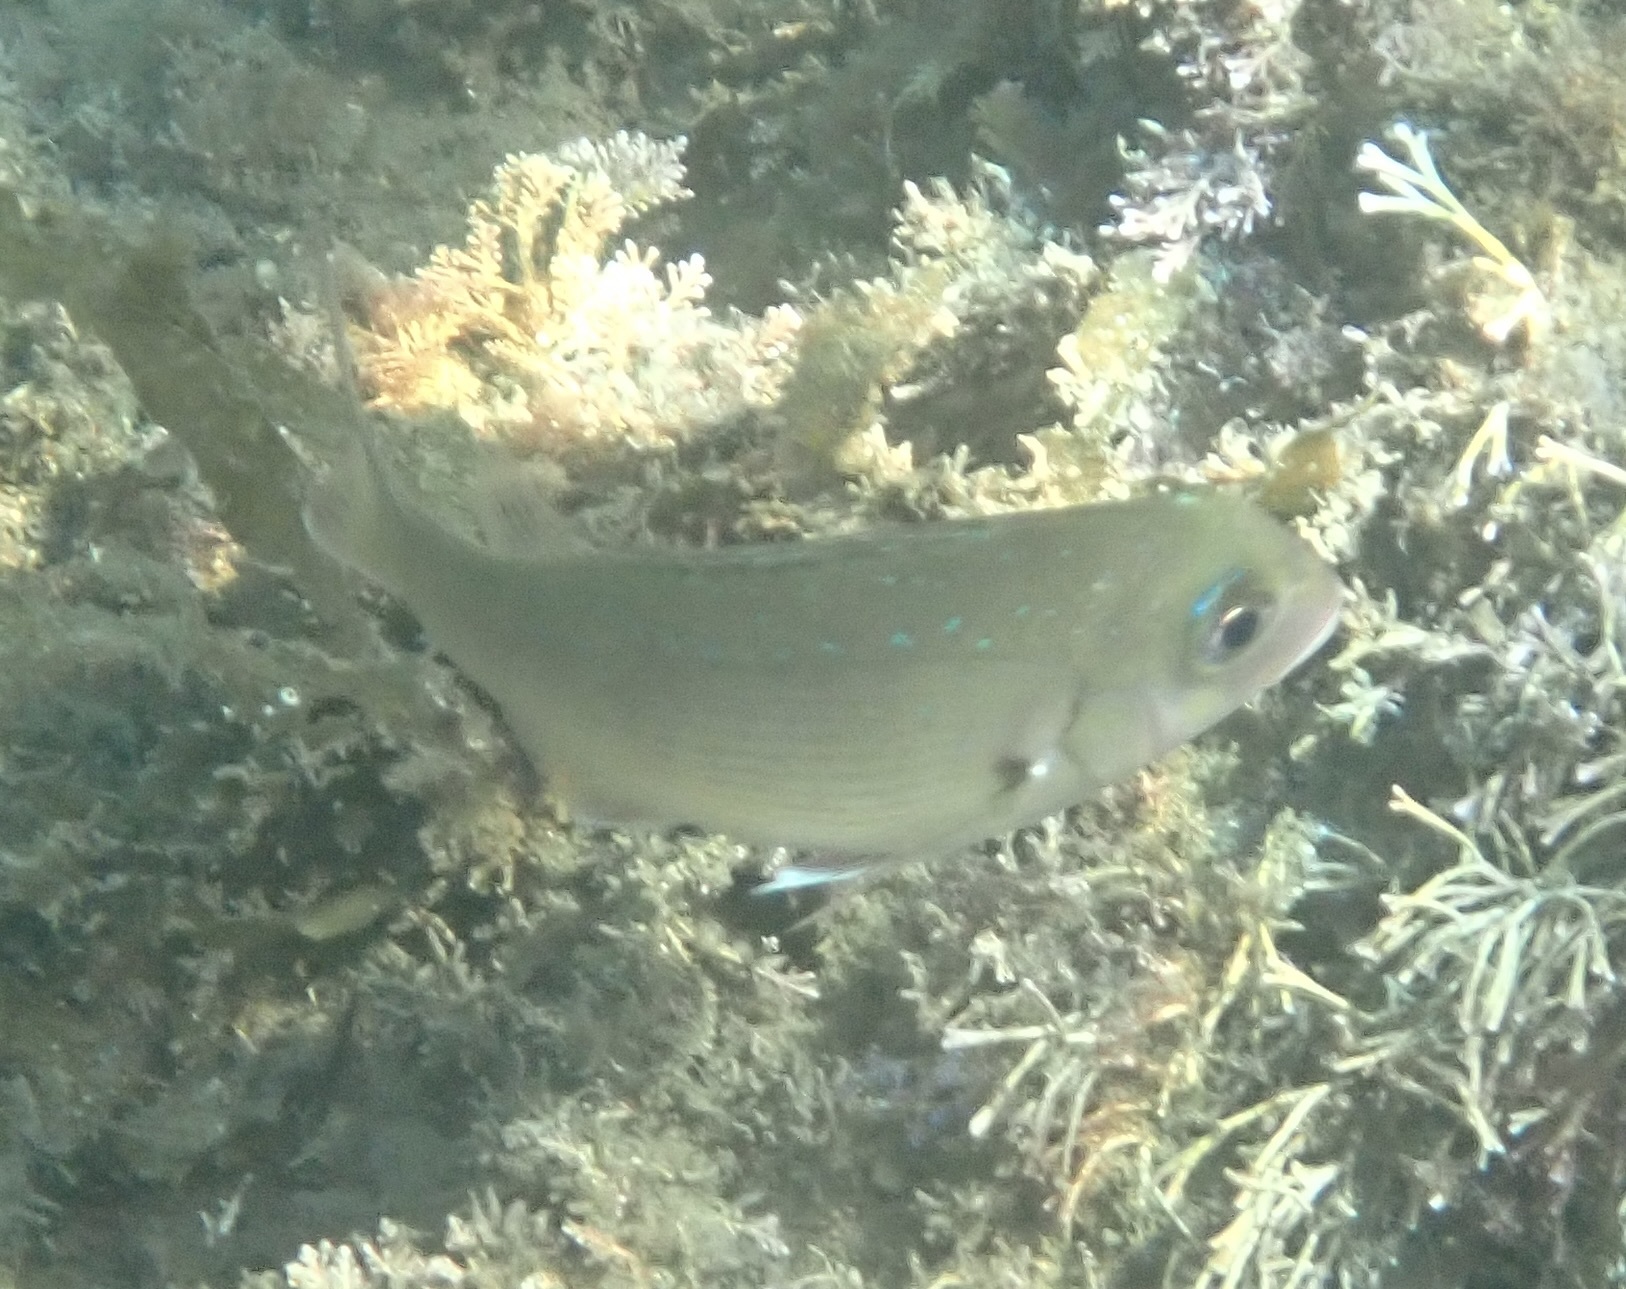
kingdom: Animalia
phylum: Chordata
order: Perciformes
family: Sparidae
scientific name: Sparidae
